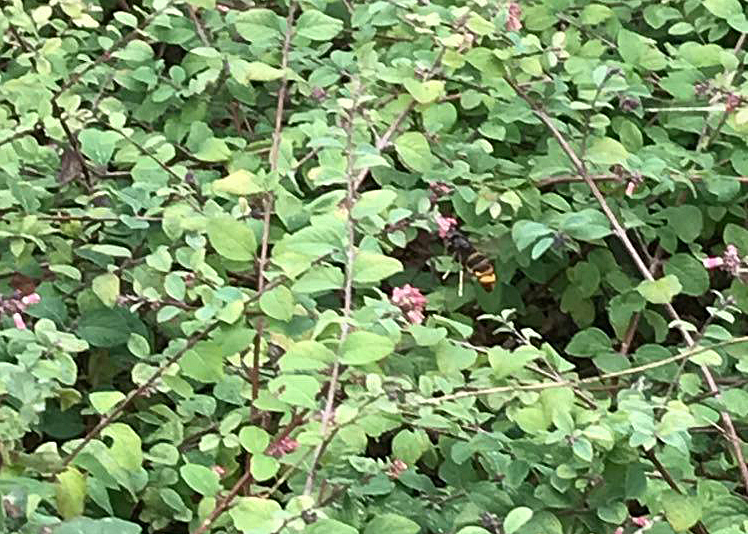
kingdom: Animalia
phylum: Arthropoda
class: Insecta
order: Hymenoptera
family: Vespidae
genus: Vespa
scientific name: Vespa velutina
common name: Asian hornet
